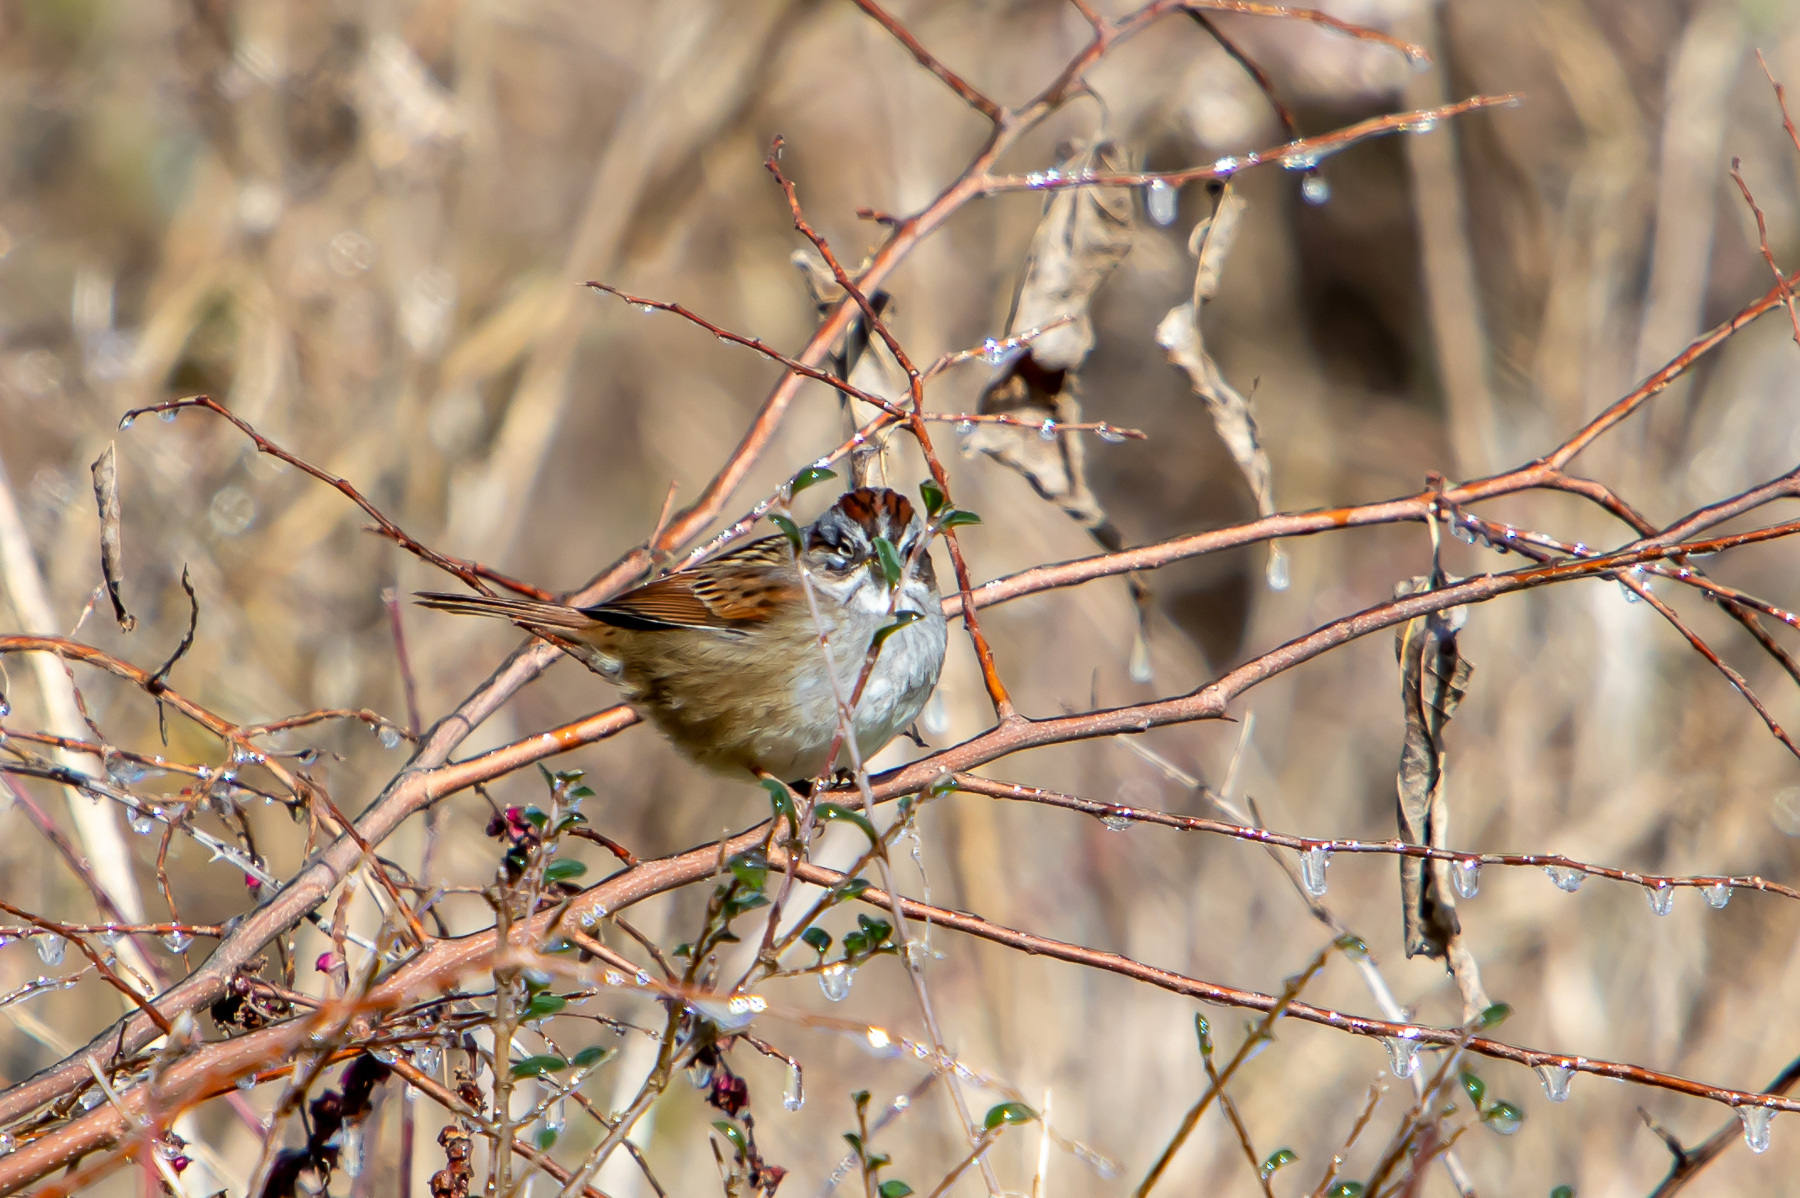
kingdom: Animalia
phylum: Chordata
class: Aves
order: Passeriformes
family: Passerellidae
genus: Melospiza
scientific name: Melospiza georgiana
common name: Swamp sparrow
